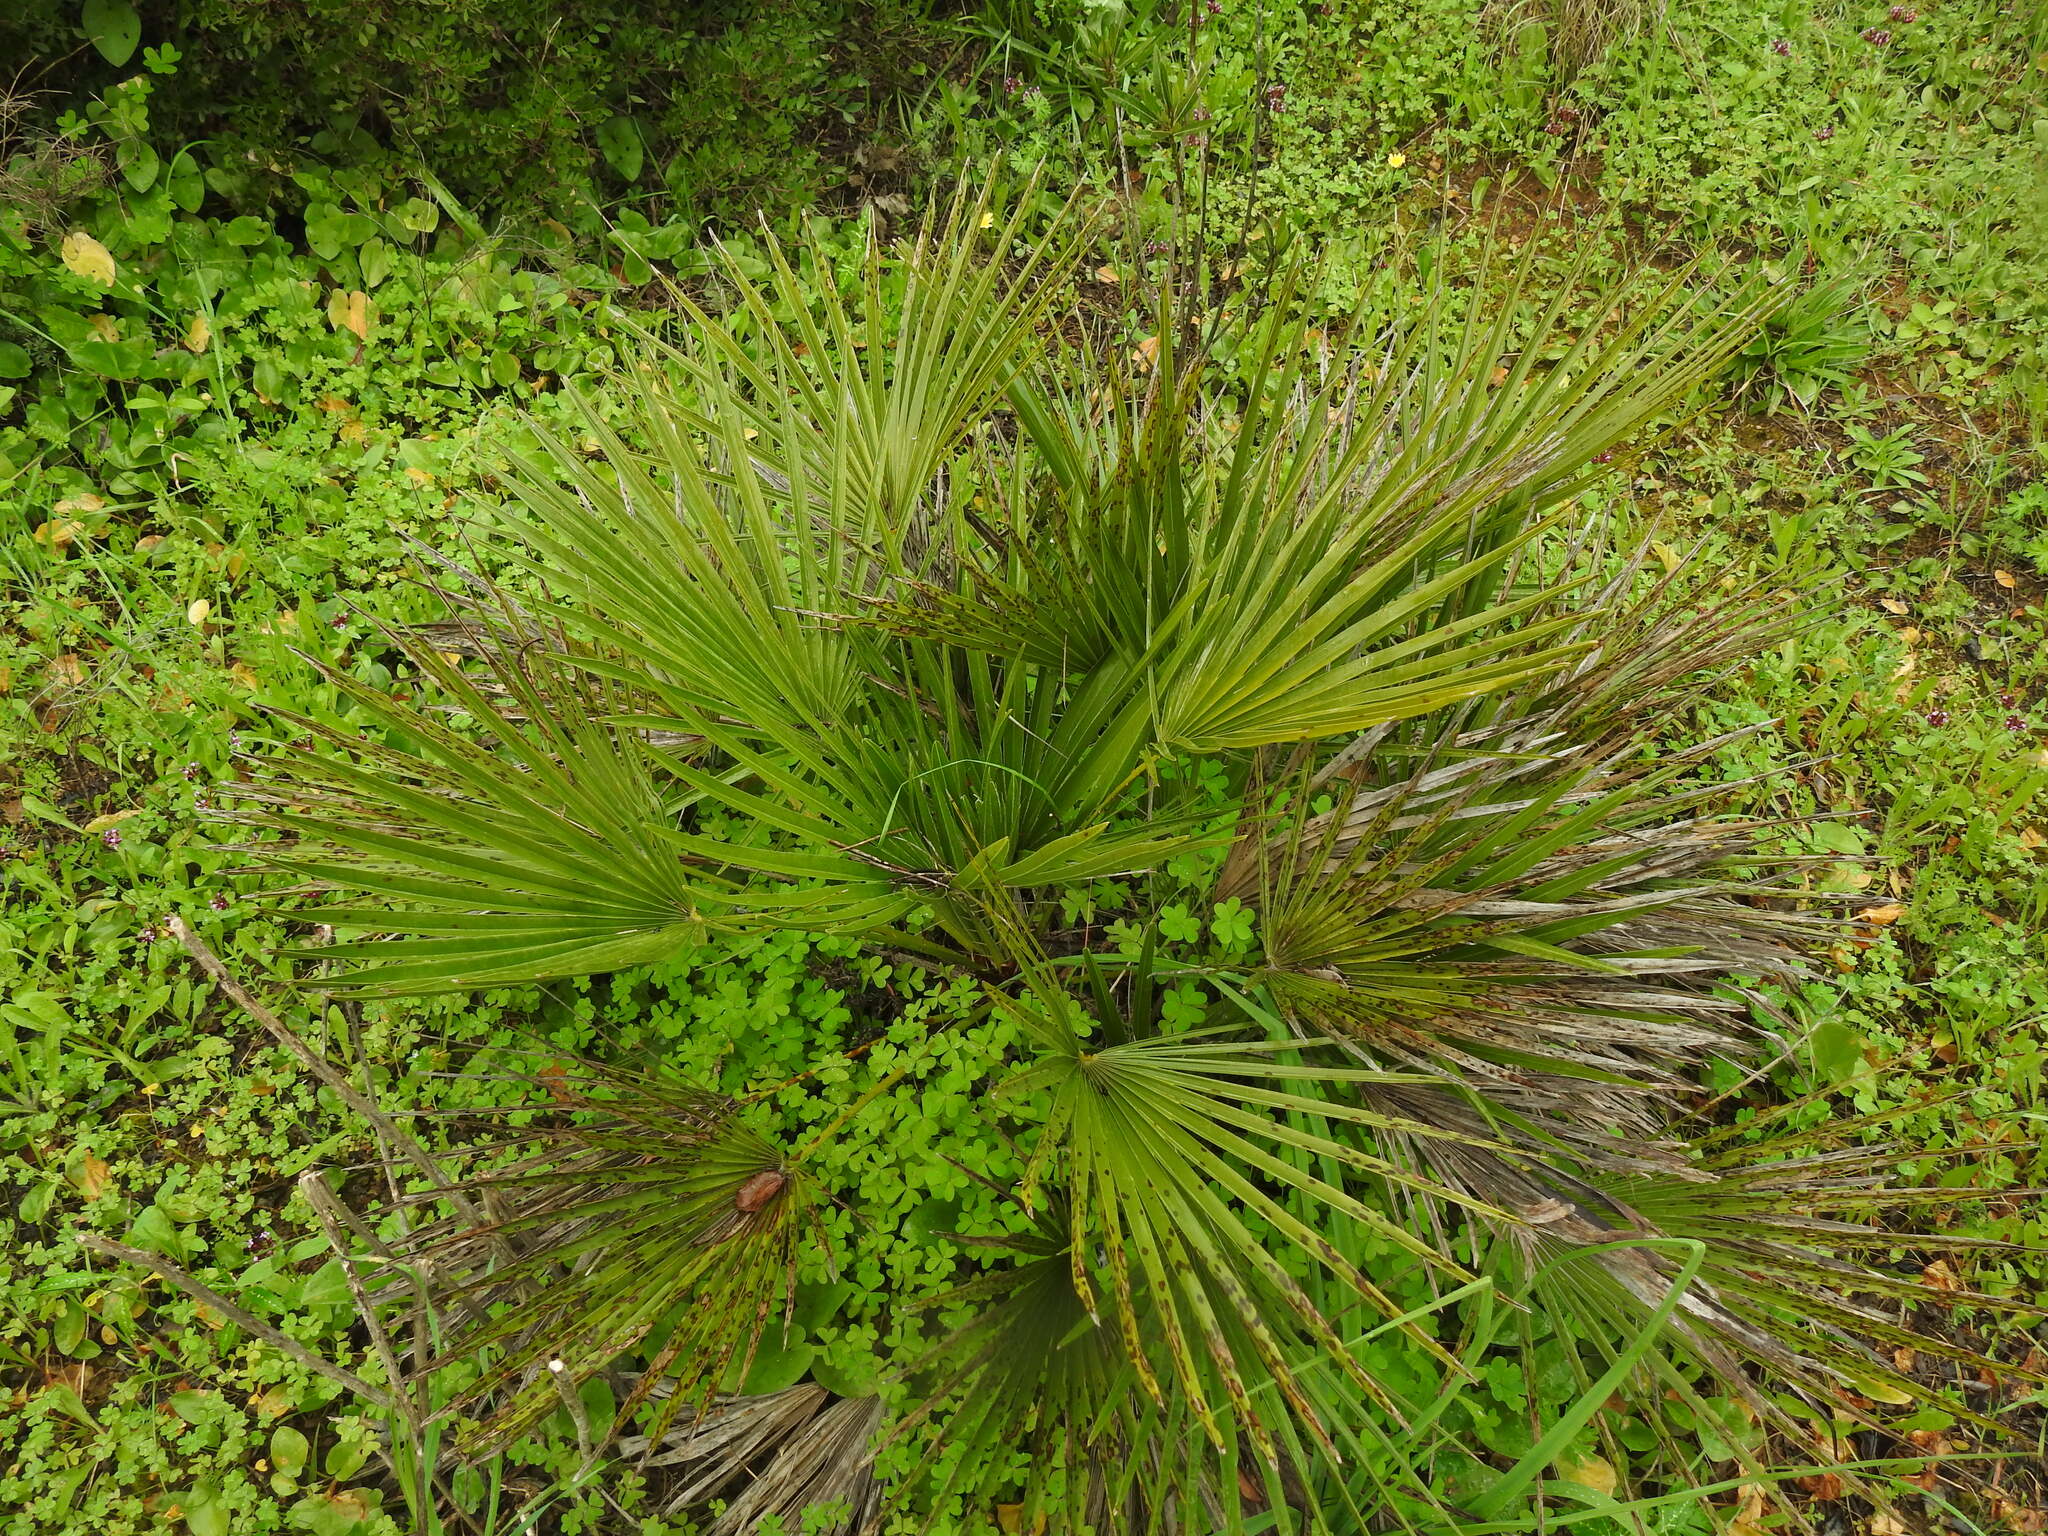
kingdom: Plantae
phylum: Tracheophyta
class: Liliopsida
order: Arecales
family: Arecaceae
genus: Chamaerops
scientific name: Chamaerops humilis
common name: Dwarf fan palm
